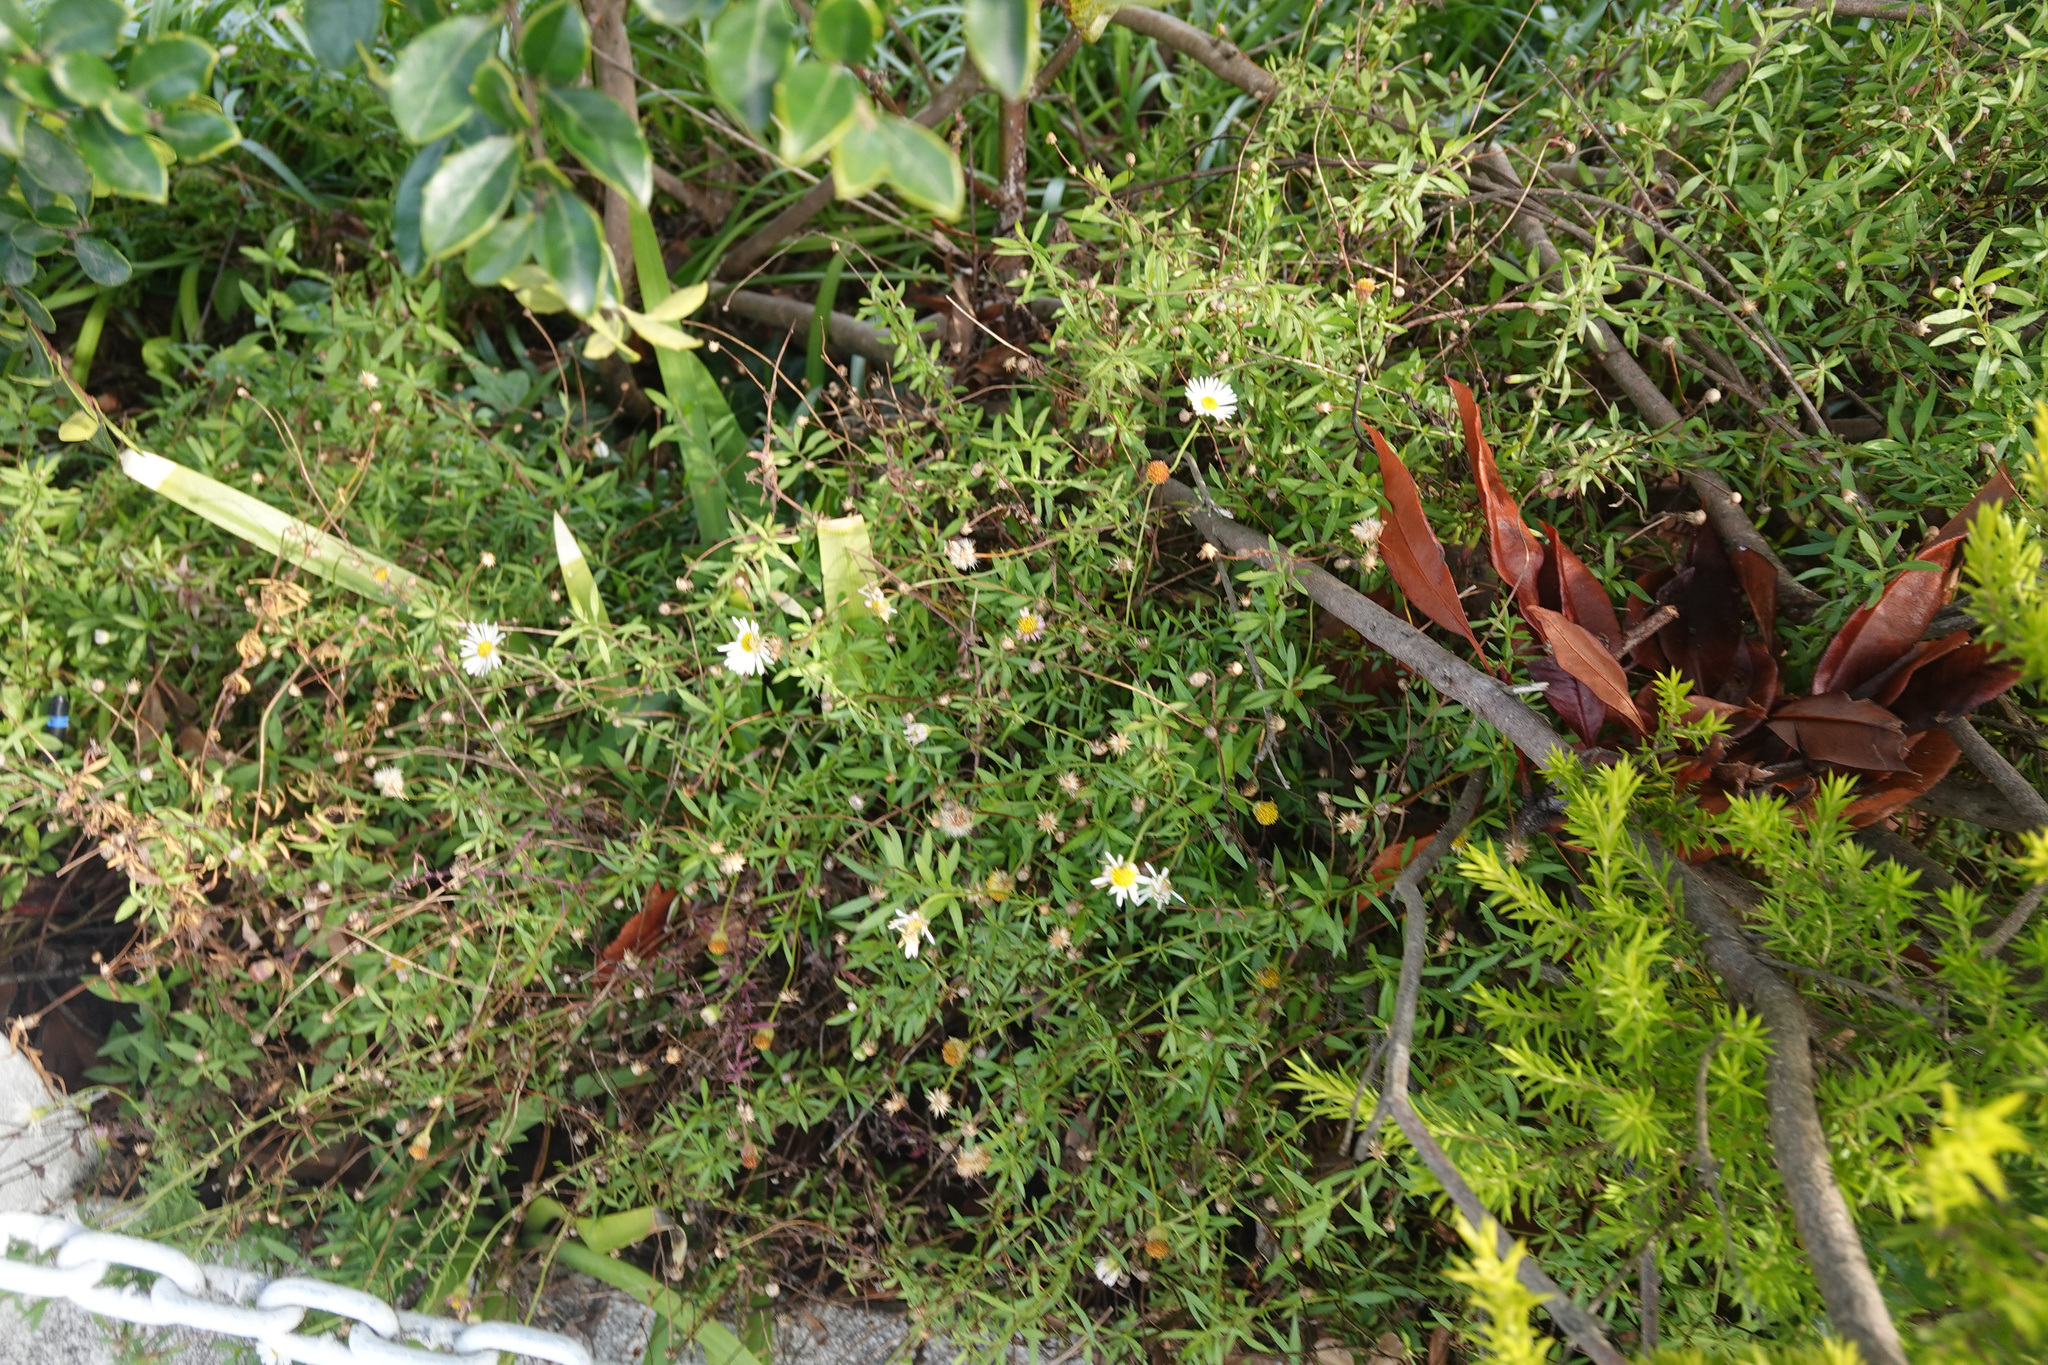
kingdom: Plantae
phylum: Tracheophyta
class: Magnoliopsida
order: Asterales
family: Asteraceae
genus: Erigeron
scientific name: Erigeron karvinskianus
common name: Mexican fleabane
